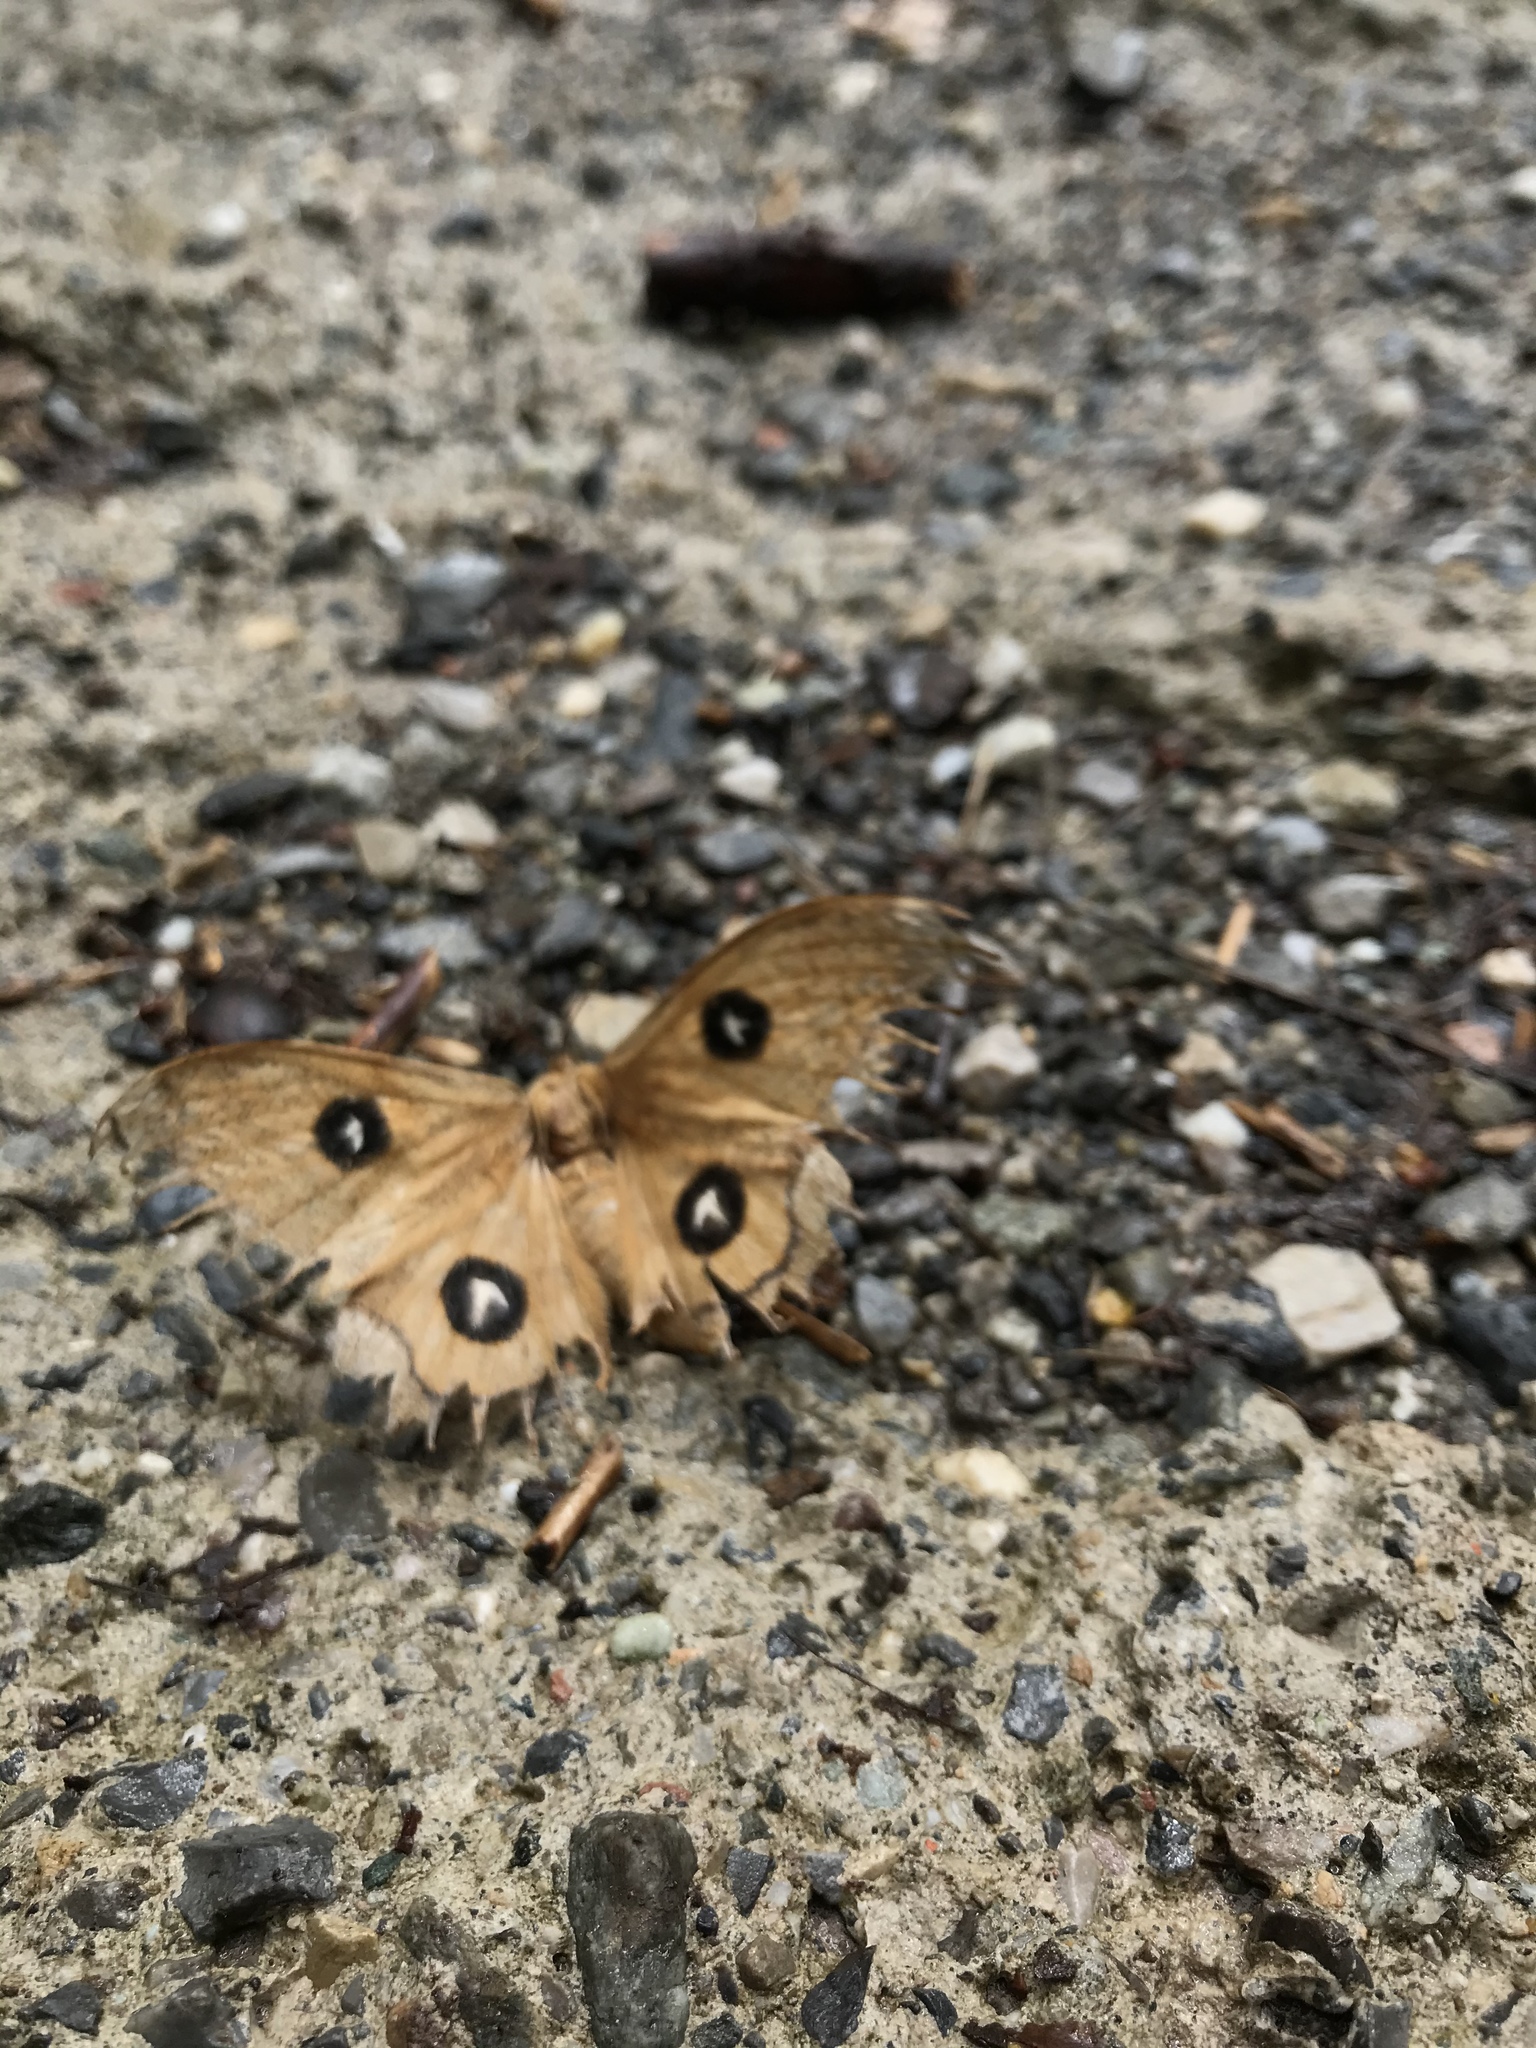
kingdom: Animalia
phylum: Arthropoda
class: Insecta
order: Lepidoptera
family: Saturniidae
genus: Aglia
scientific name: Aglia tau
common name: Tau emperor
